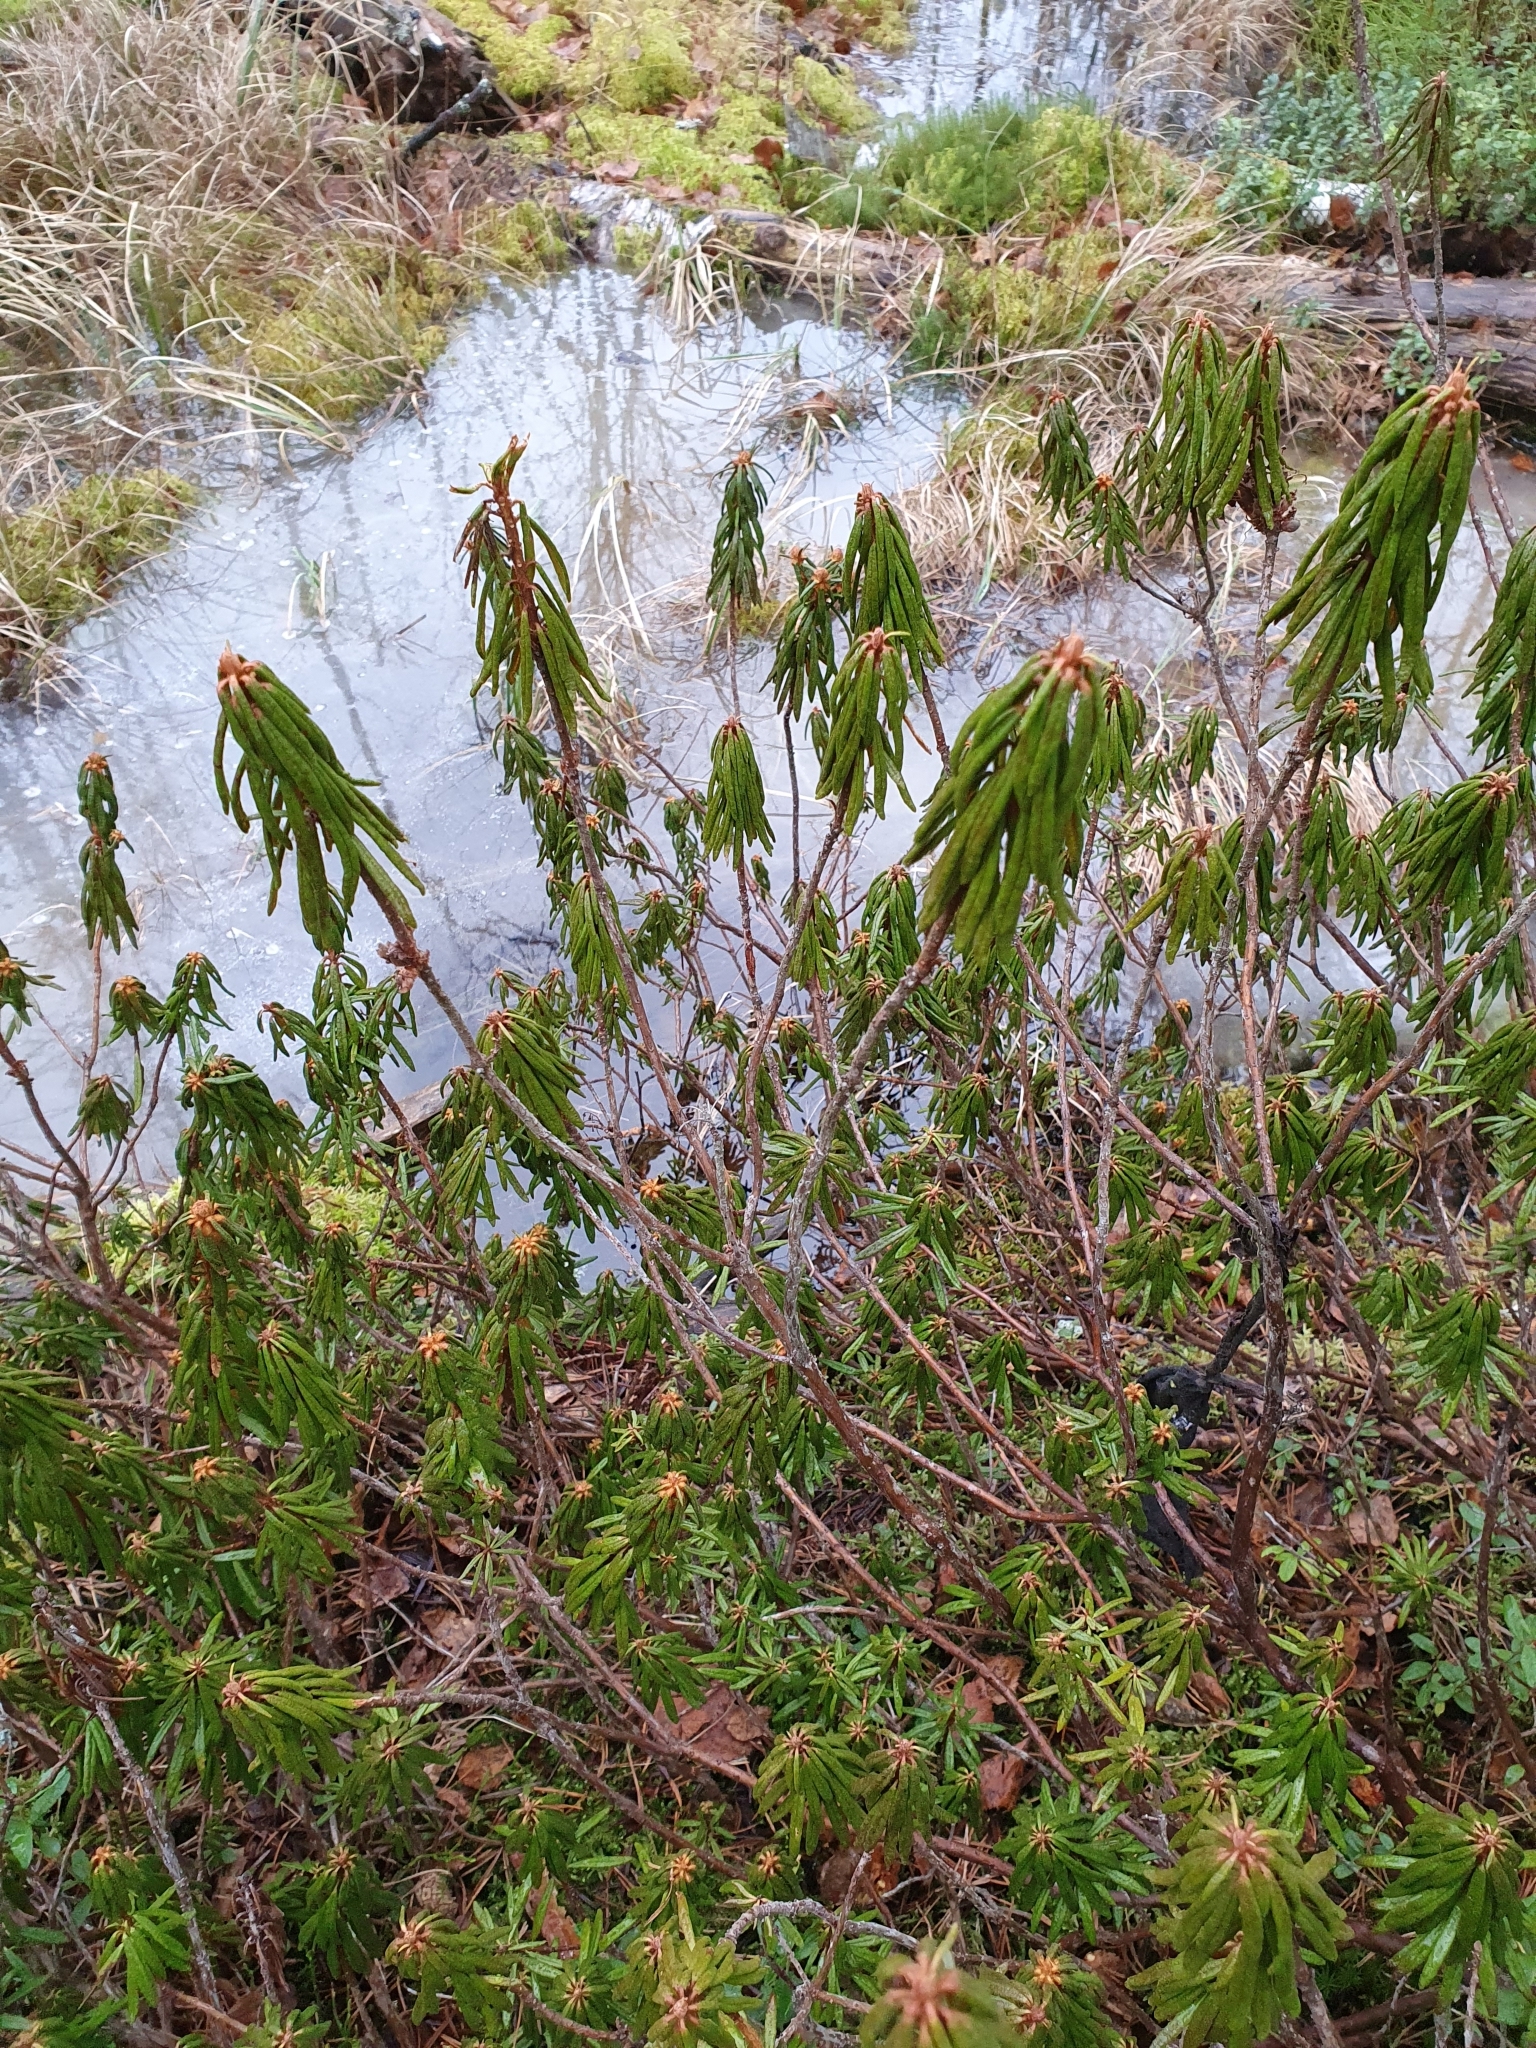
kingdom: Plantae
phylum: Tracheophyta
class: Magnoliopsida
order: Ericales
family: Ericaceae
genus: Rhododendron
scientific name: Rhododendron tomentosum
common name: Marsh labrador tea
